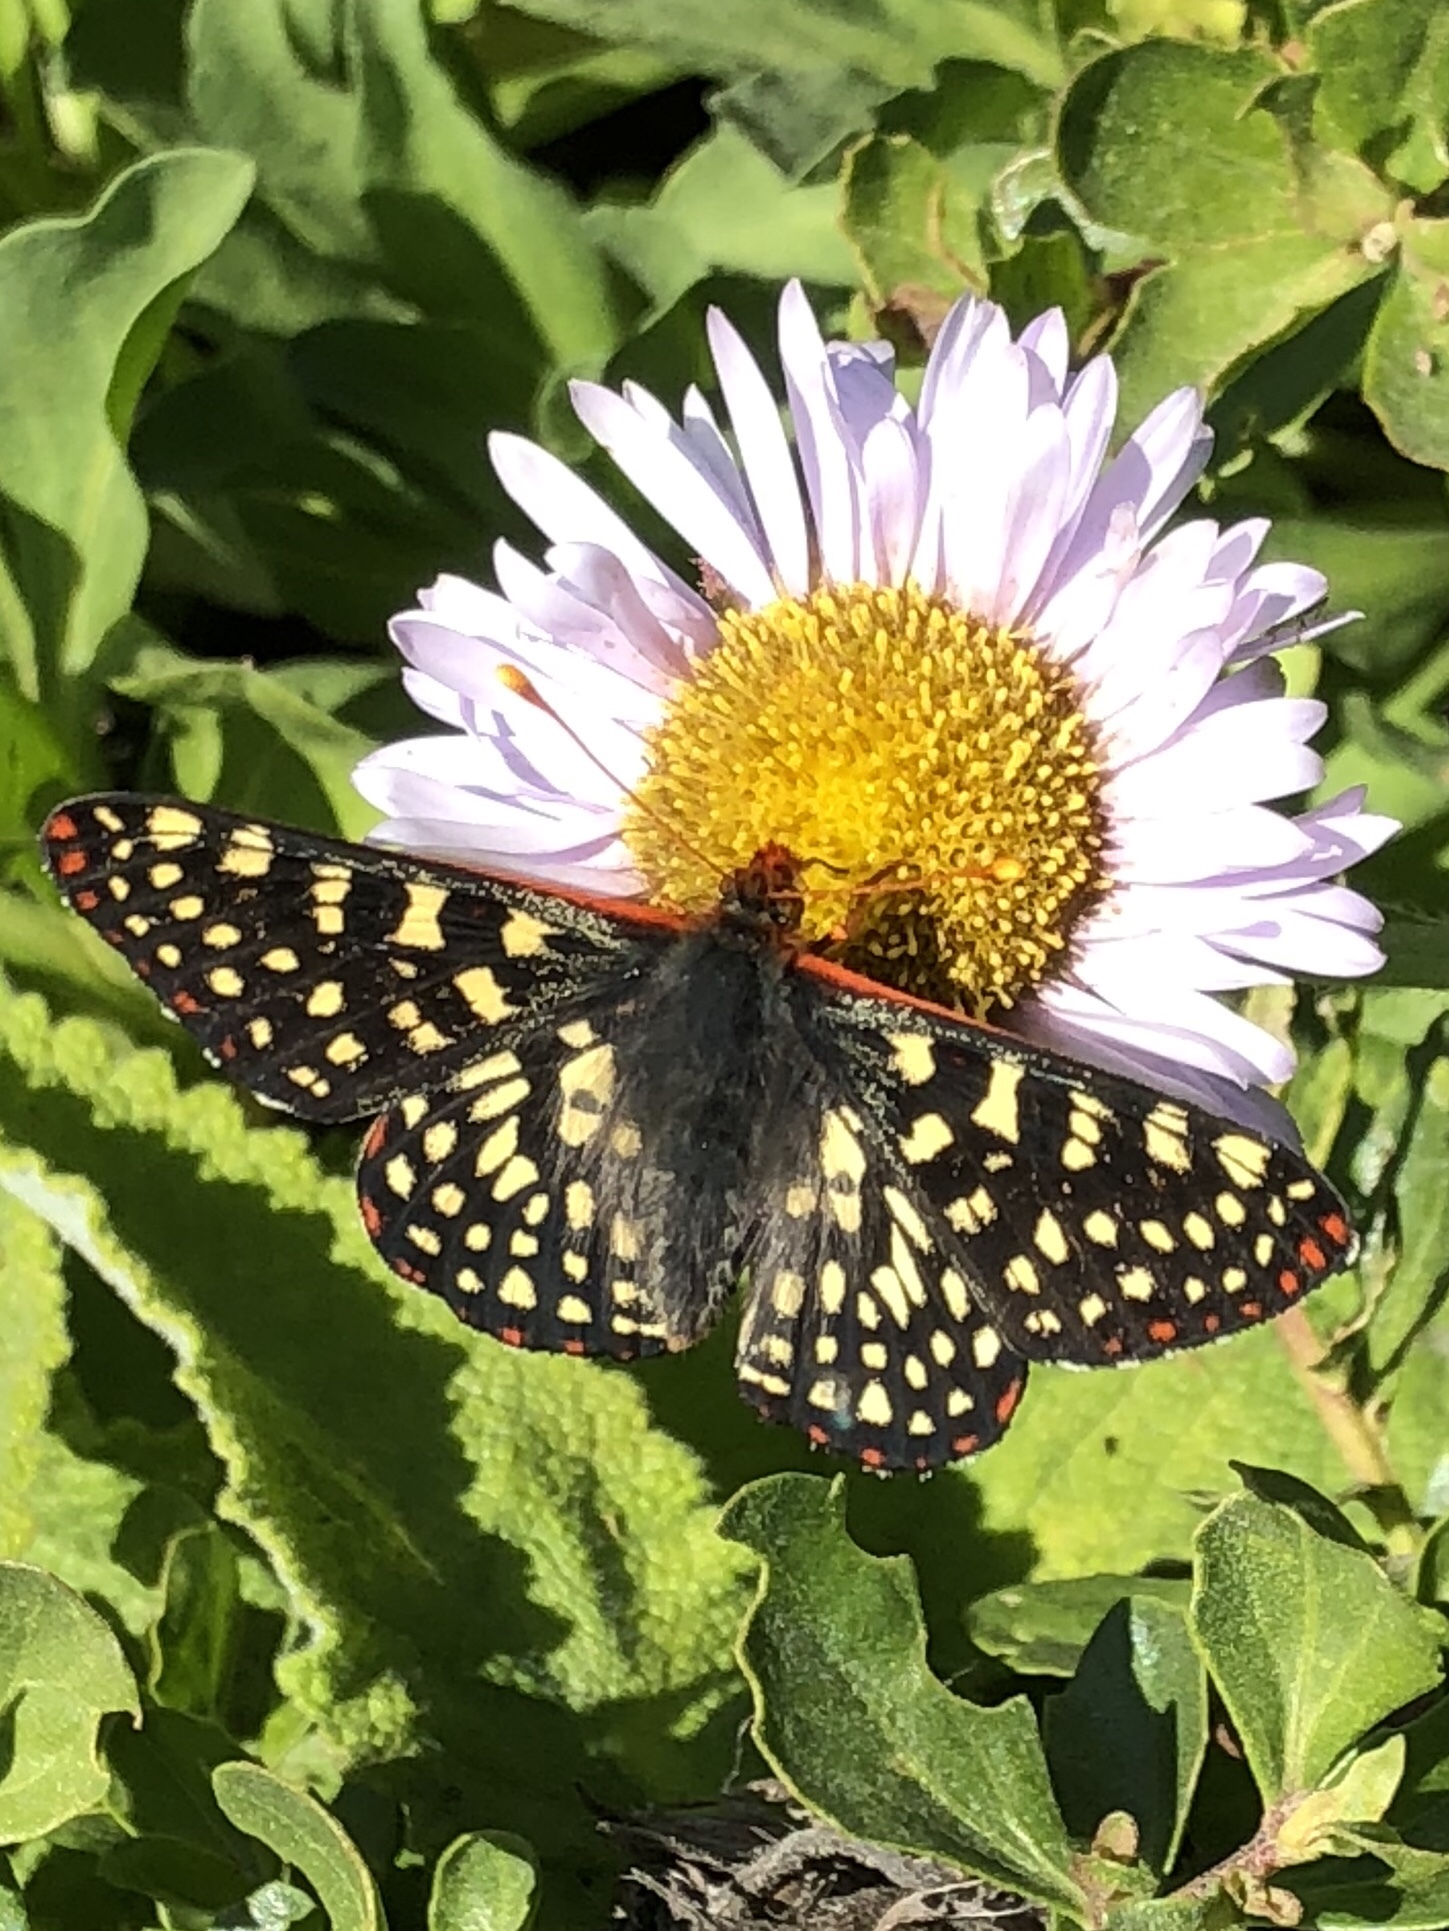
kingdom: Animalia
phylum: Arthropoda
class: Insecta
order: Lepidoptera
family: Nymphalidae
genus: Occidryas
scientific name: Occidryas chalcedona
